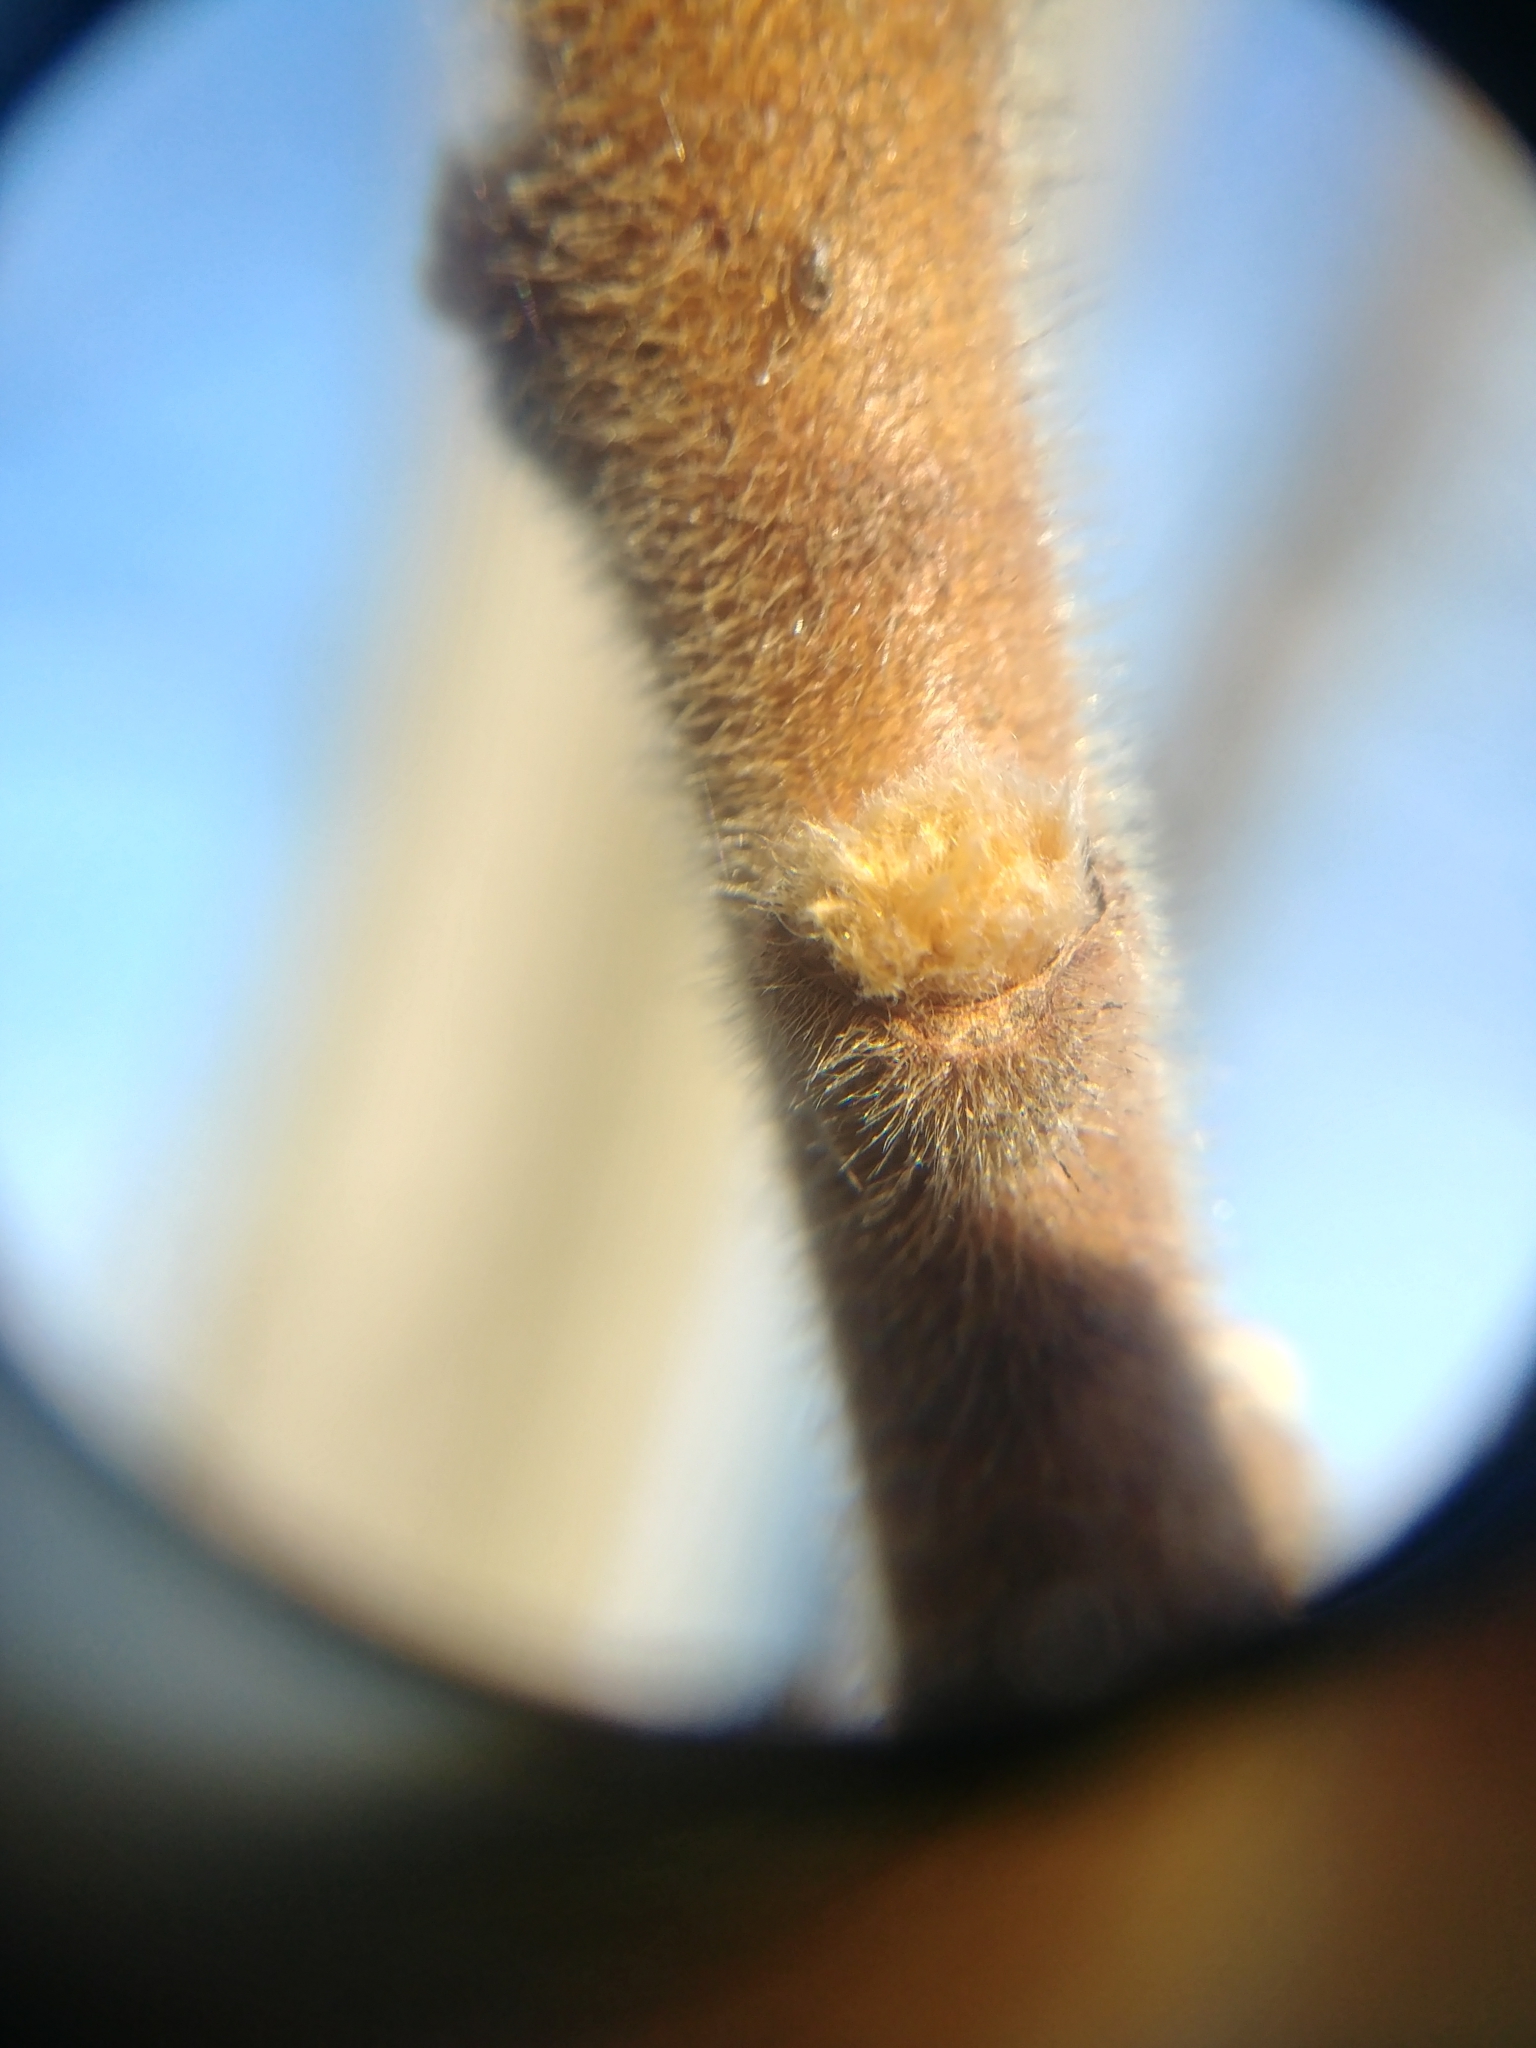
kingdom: Plantae
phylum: Tracheophyta
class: Magnoliopsida
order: Sapindales
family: Anacardiaceae
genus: Rhus
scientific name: Rhus typhina
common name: Staghorn sumac
